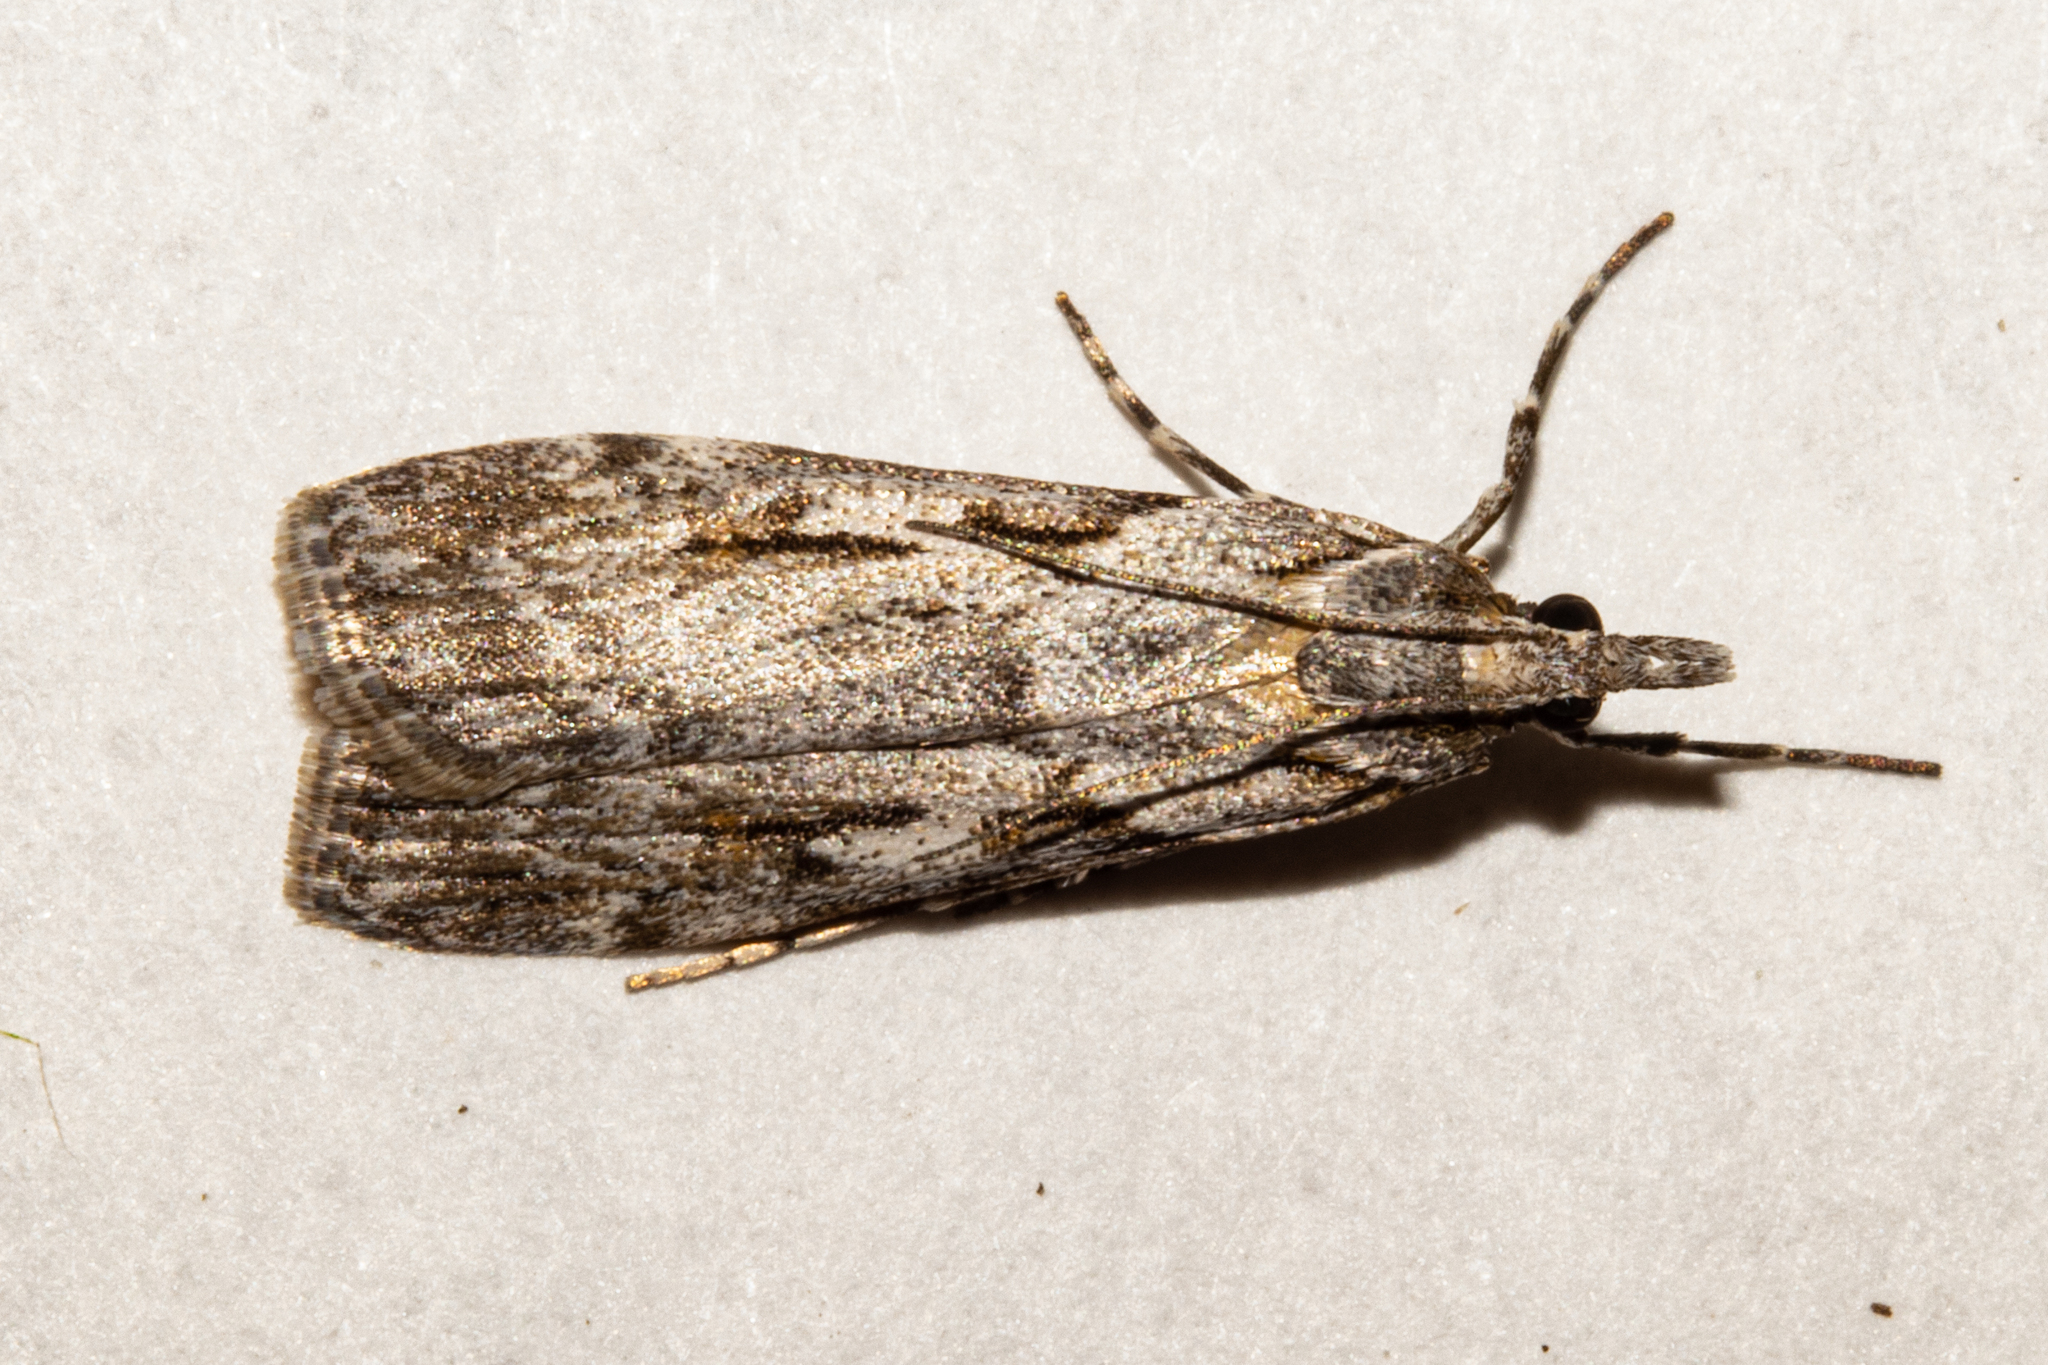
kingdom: Animalia
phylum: Arthropoda
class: Insecta
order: Lepidoptera
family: Crambidae
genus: Scoparia
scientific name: Scoparia halopis
